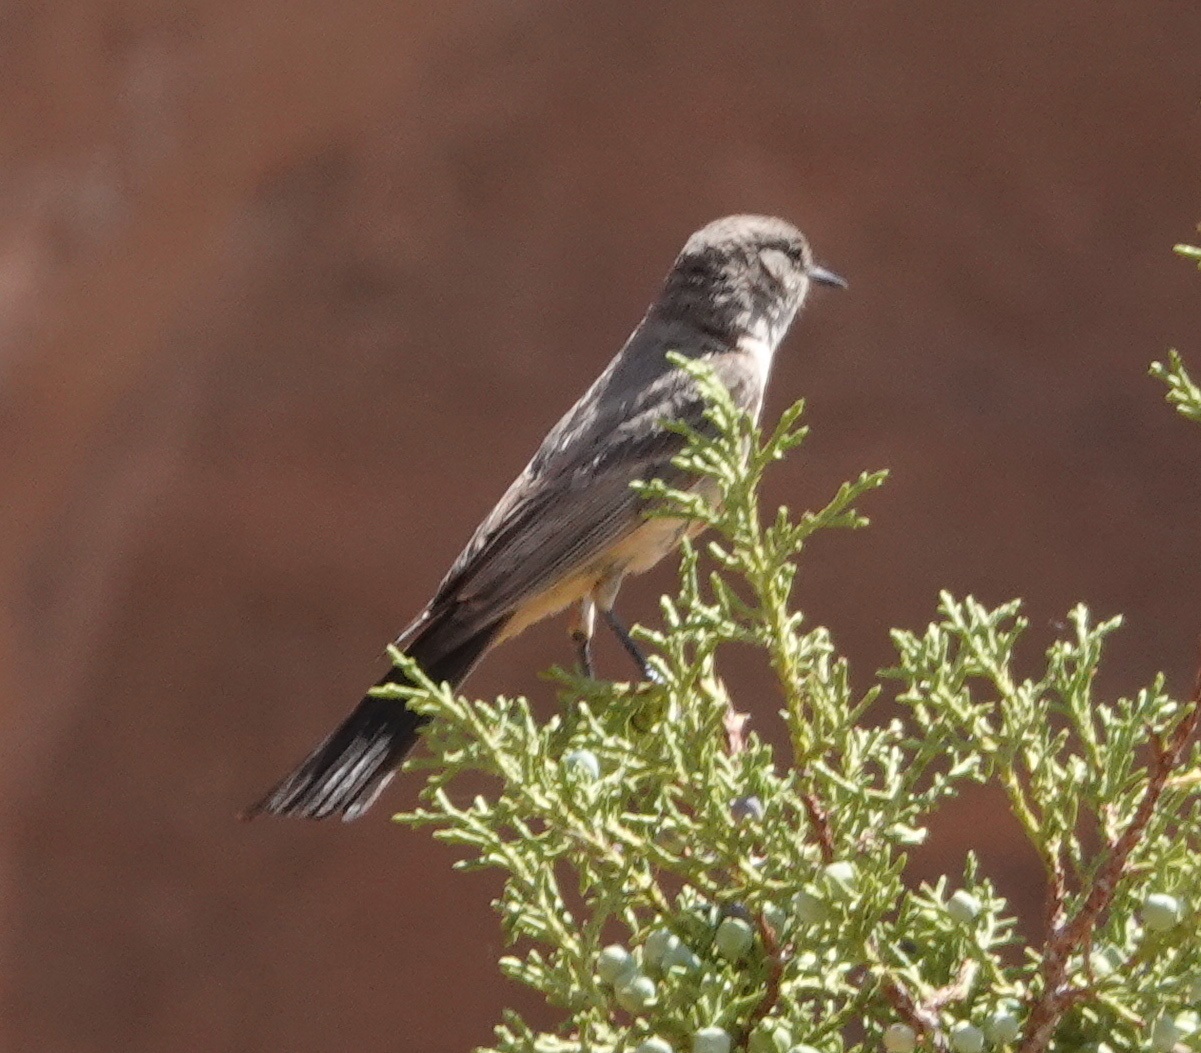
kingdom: Animalia
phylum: Chordata
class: Aves
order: Passeriformes
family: Tyrannidae
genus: Sayornis
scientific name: Sayornis saya
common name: Say's phoebe
